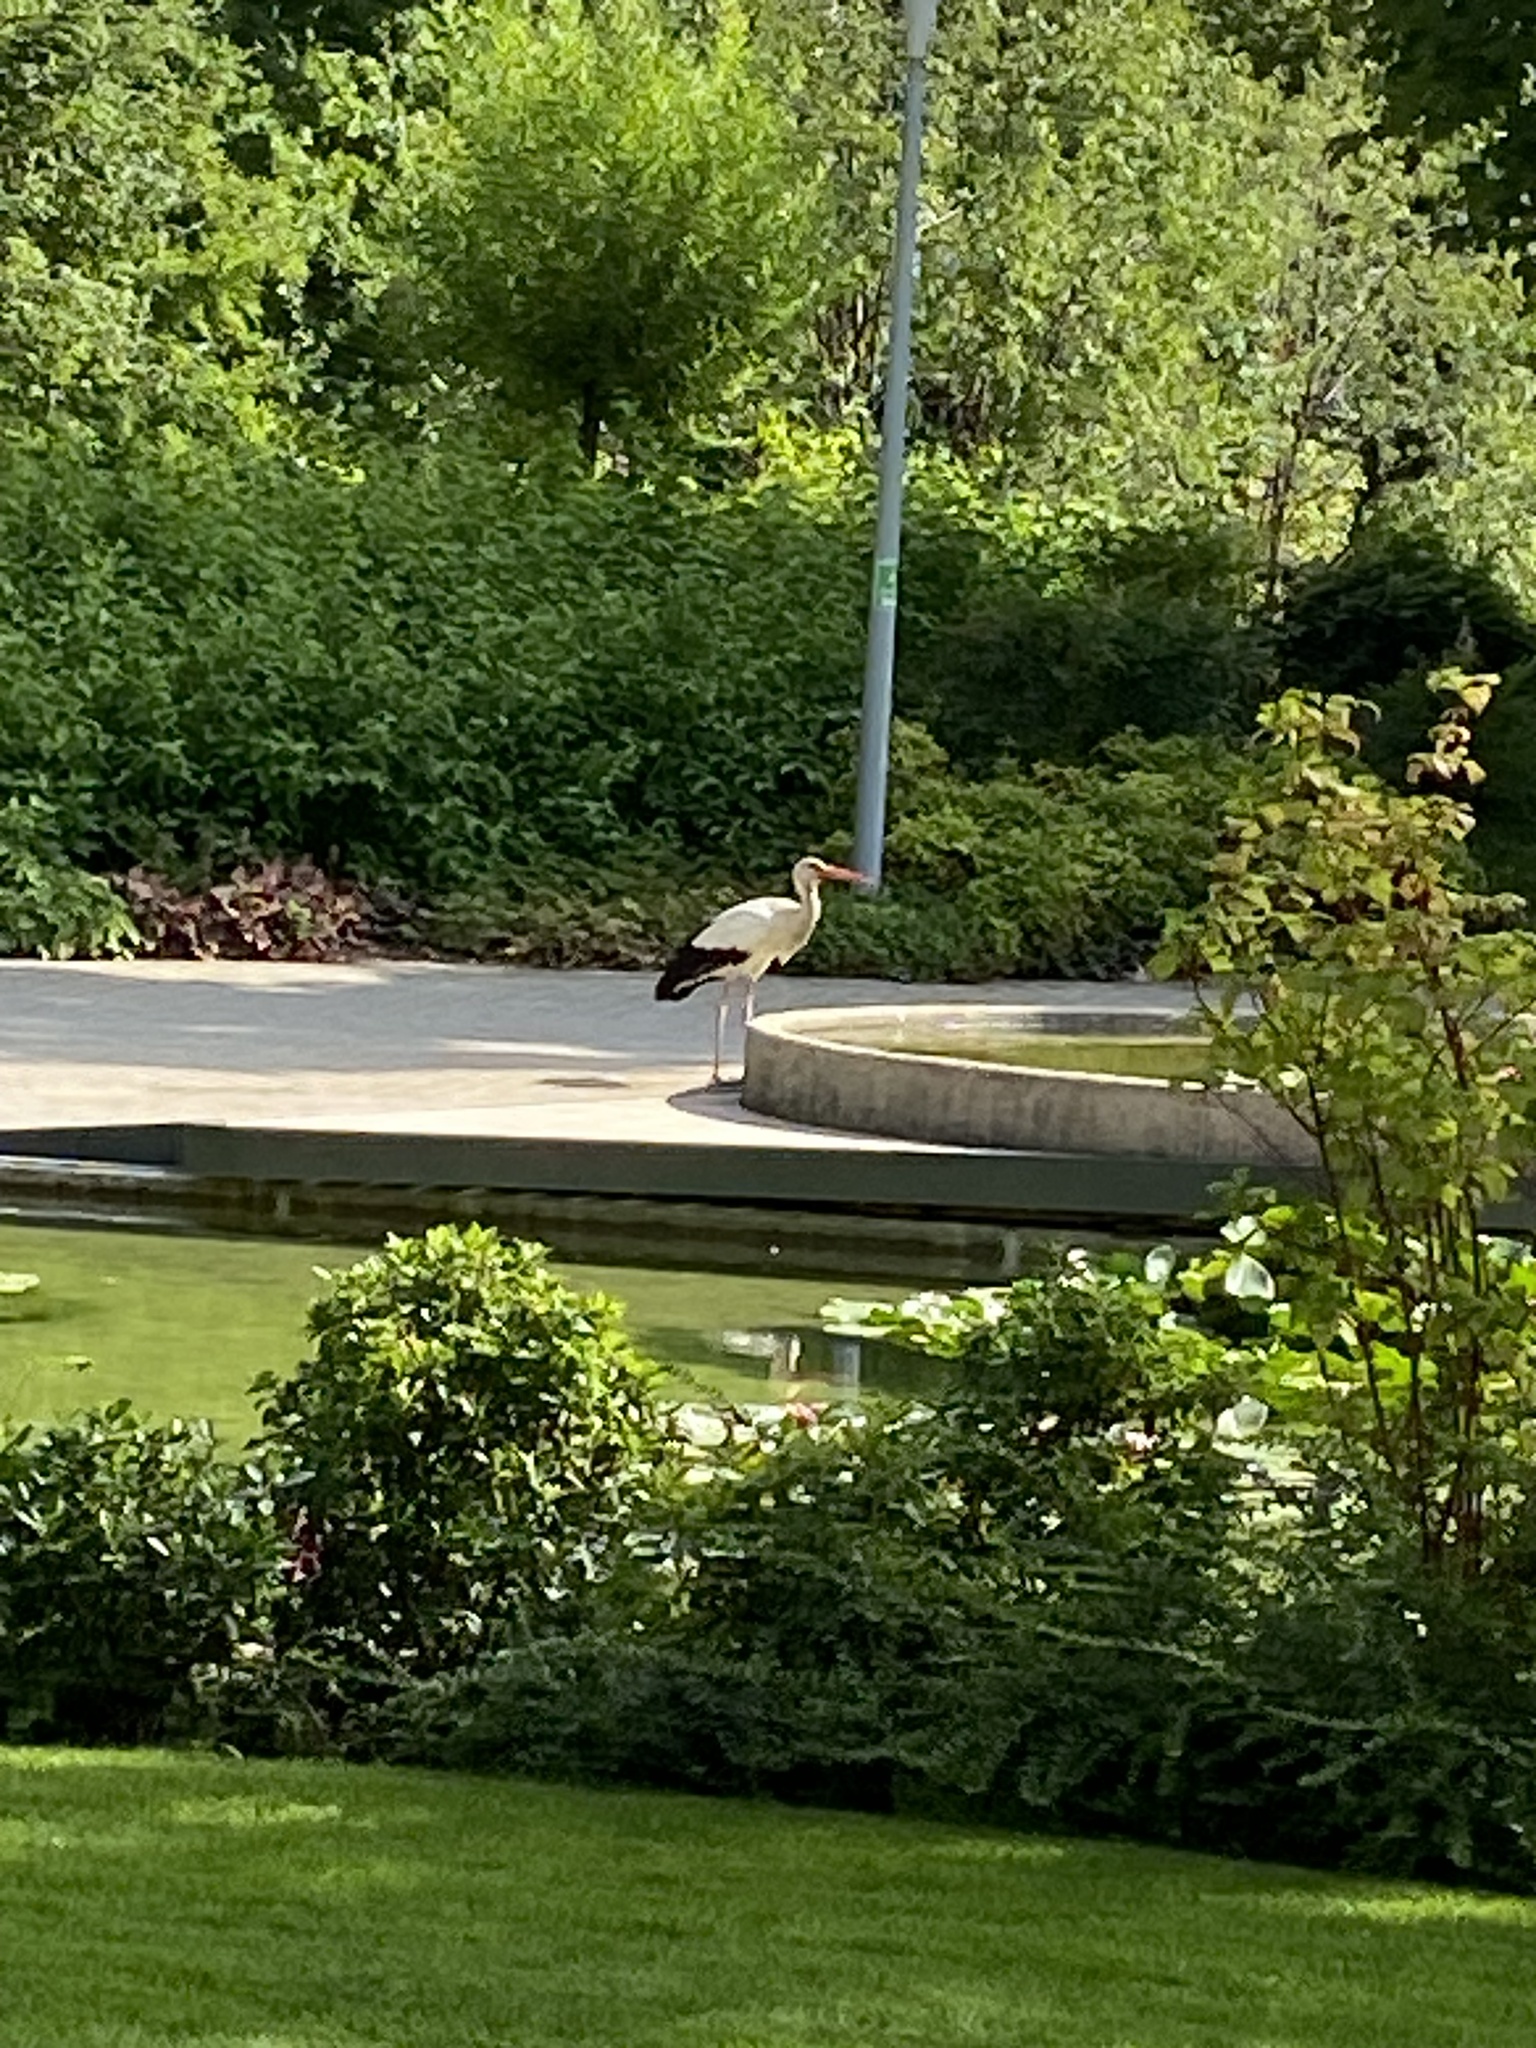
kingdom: Animalia
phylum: Chordata
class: Aves
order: Ciconiiformes
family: Ciconiidae
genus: Ciconia
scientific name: Ciconia ciconia
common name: White stork
